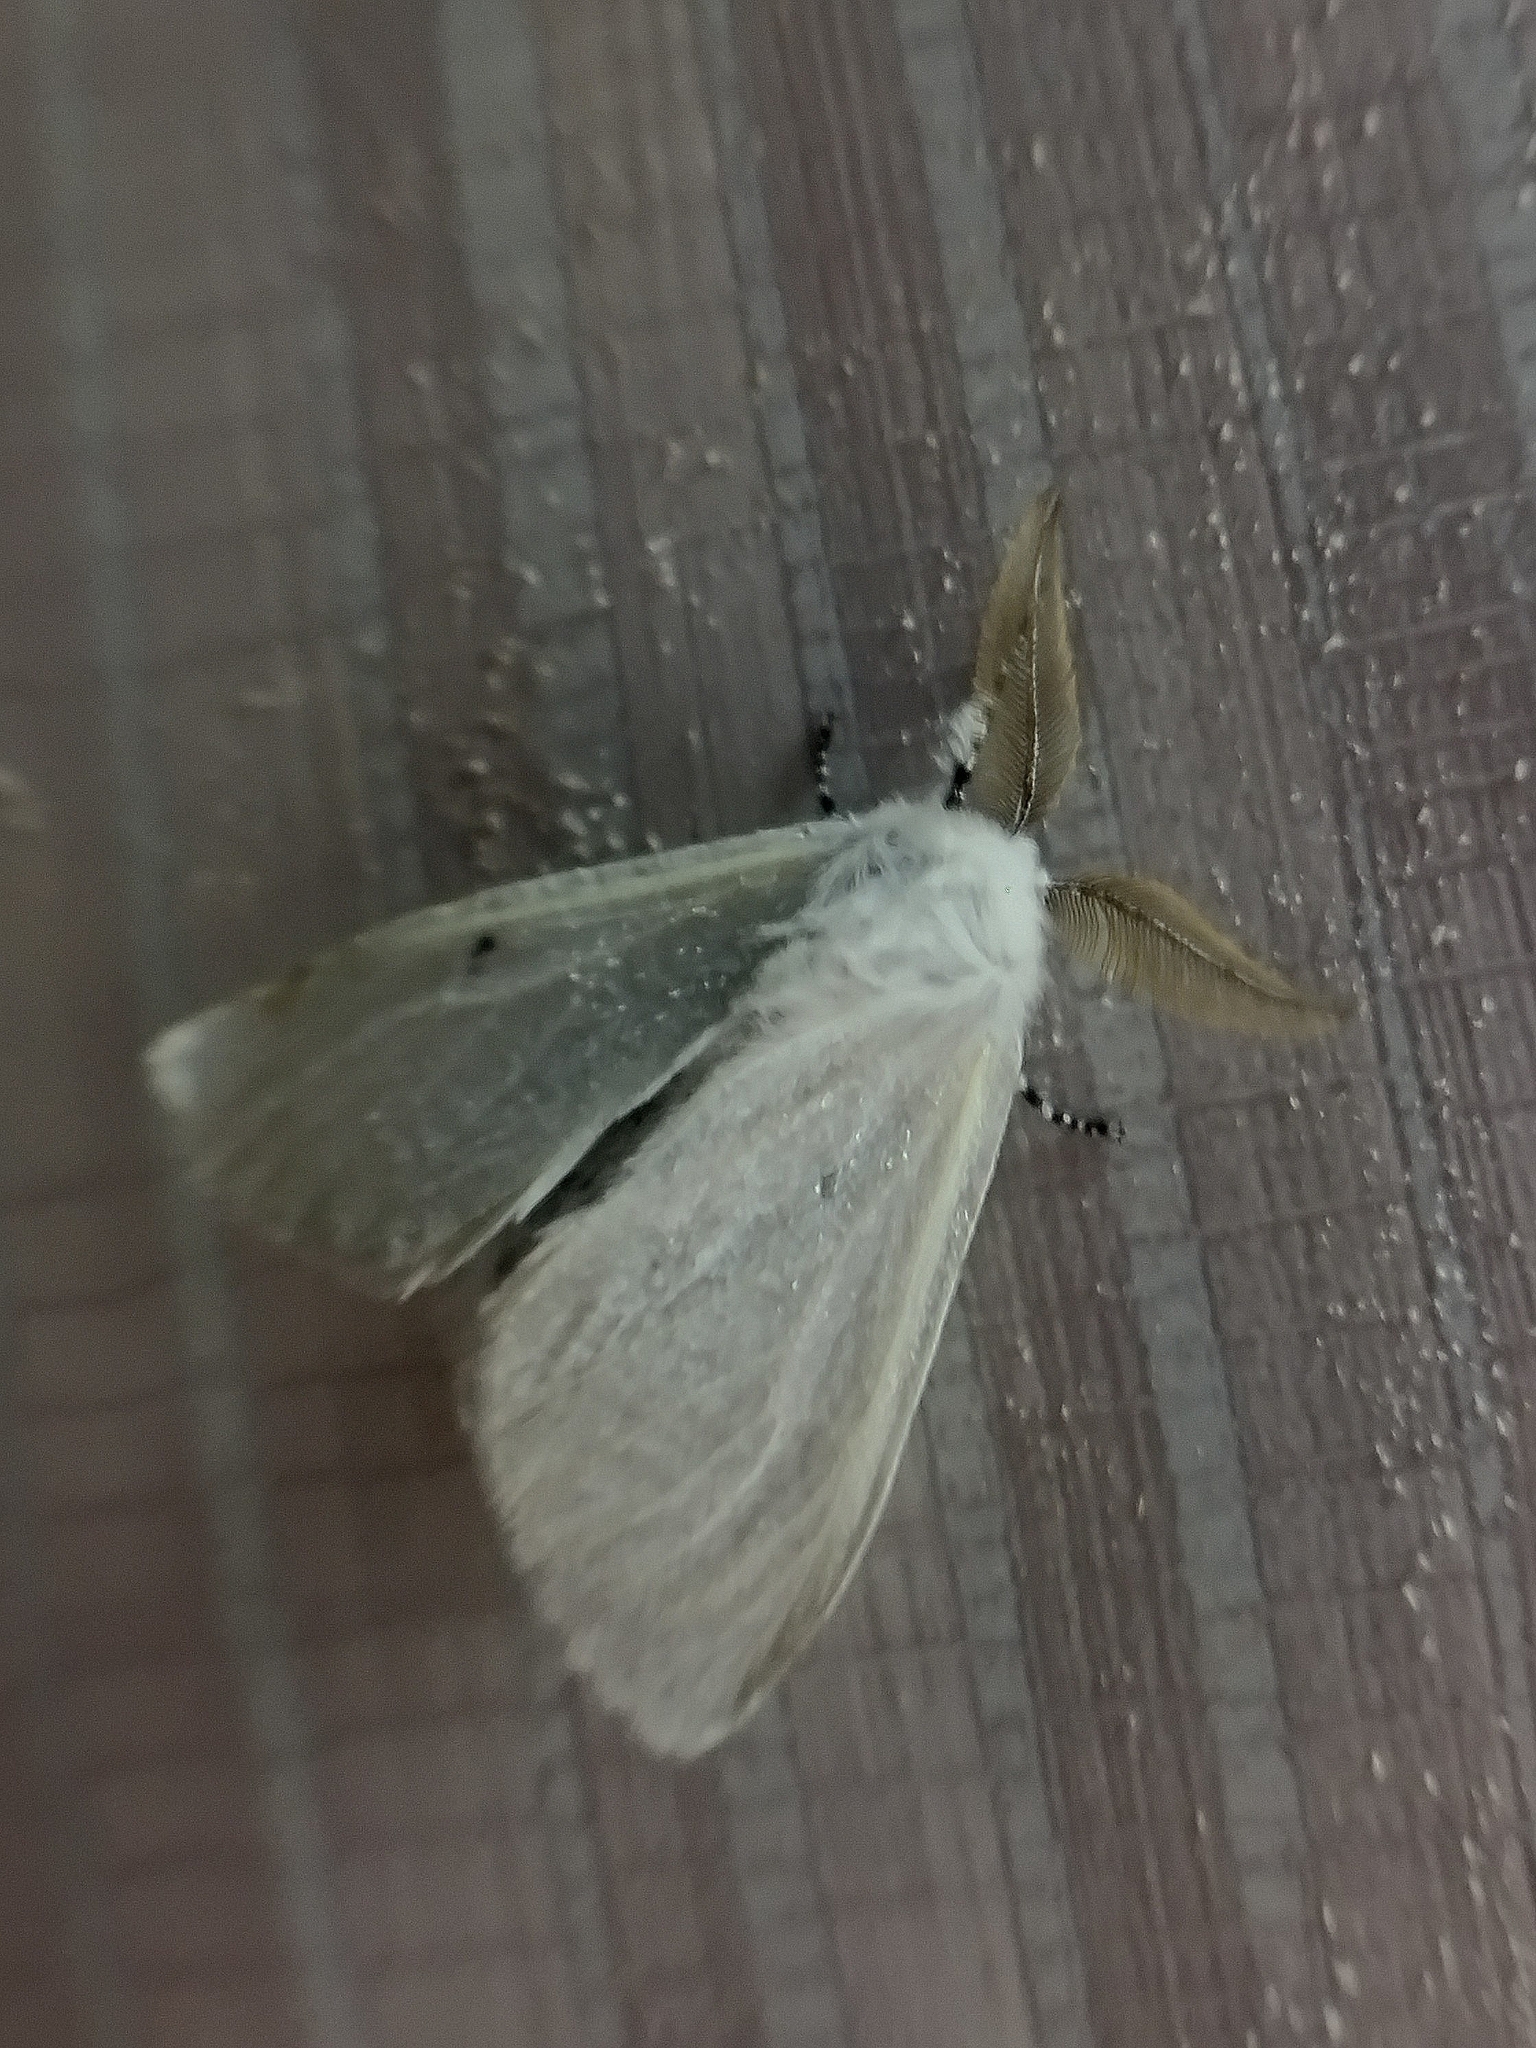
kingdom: Animalia
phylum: Arthropoda
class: Insecta
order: Lepidoptera
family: Erebidae
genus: Leucoma
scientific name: Leucoma salicis
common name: White satin moth
